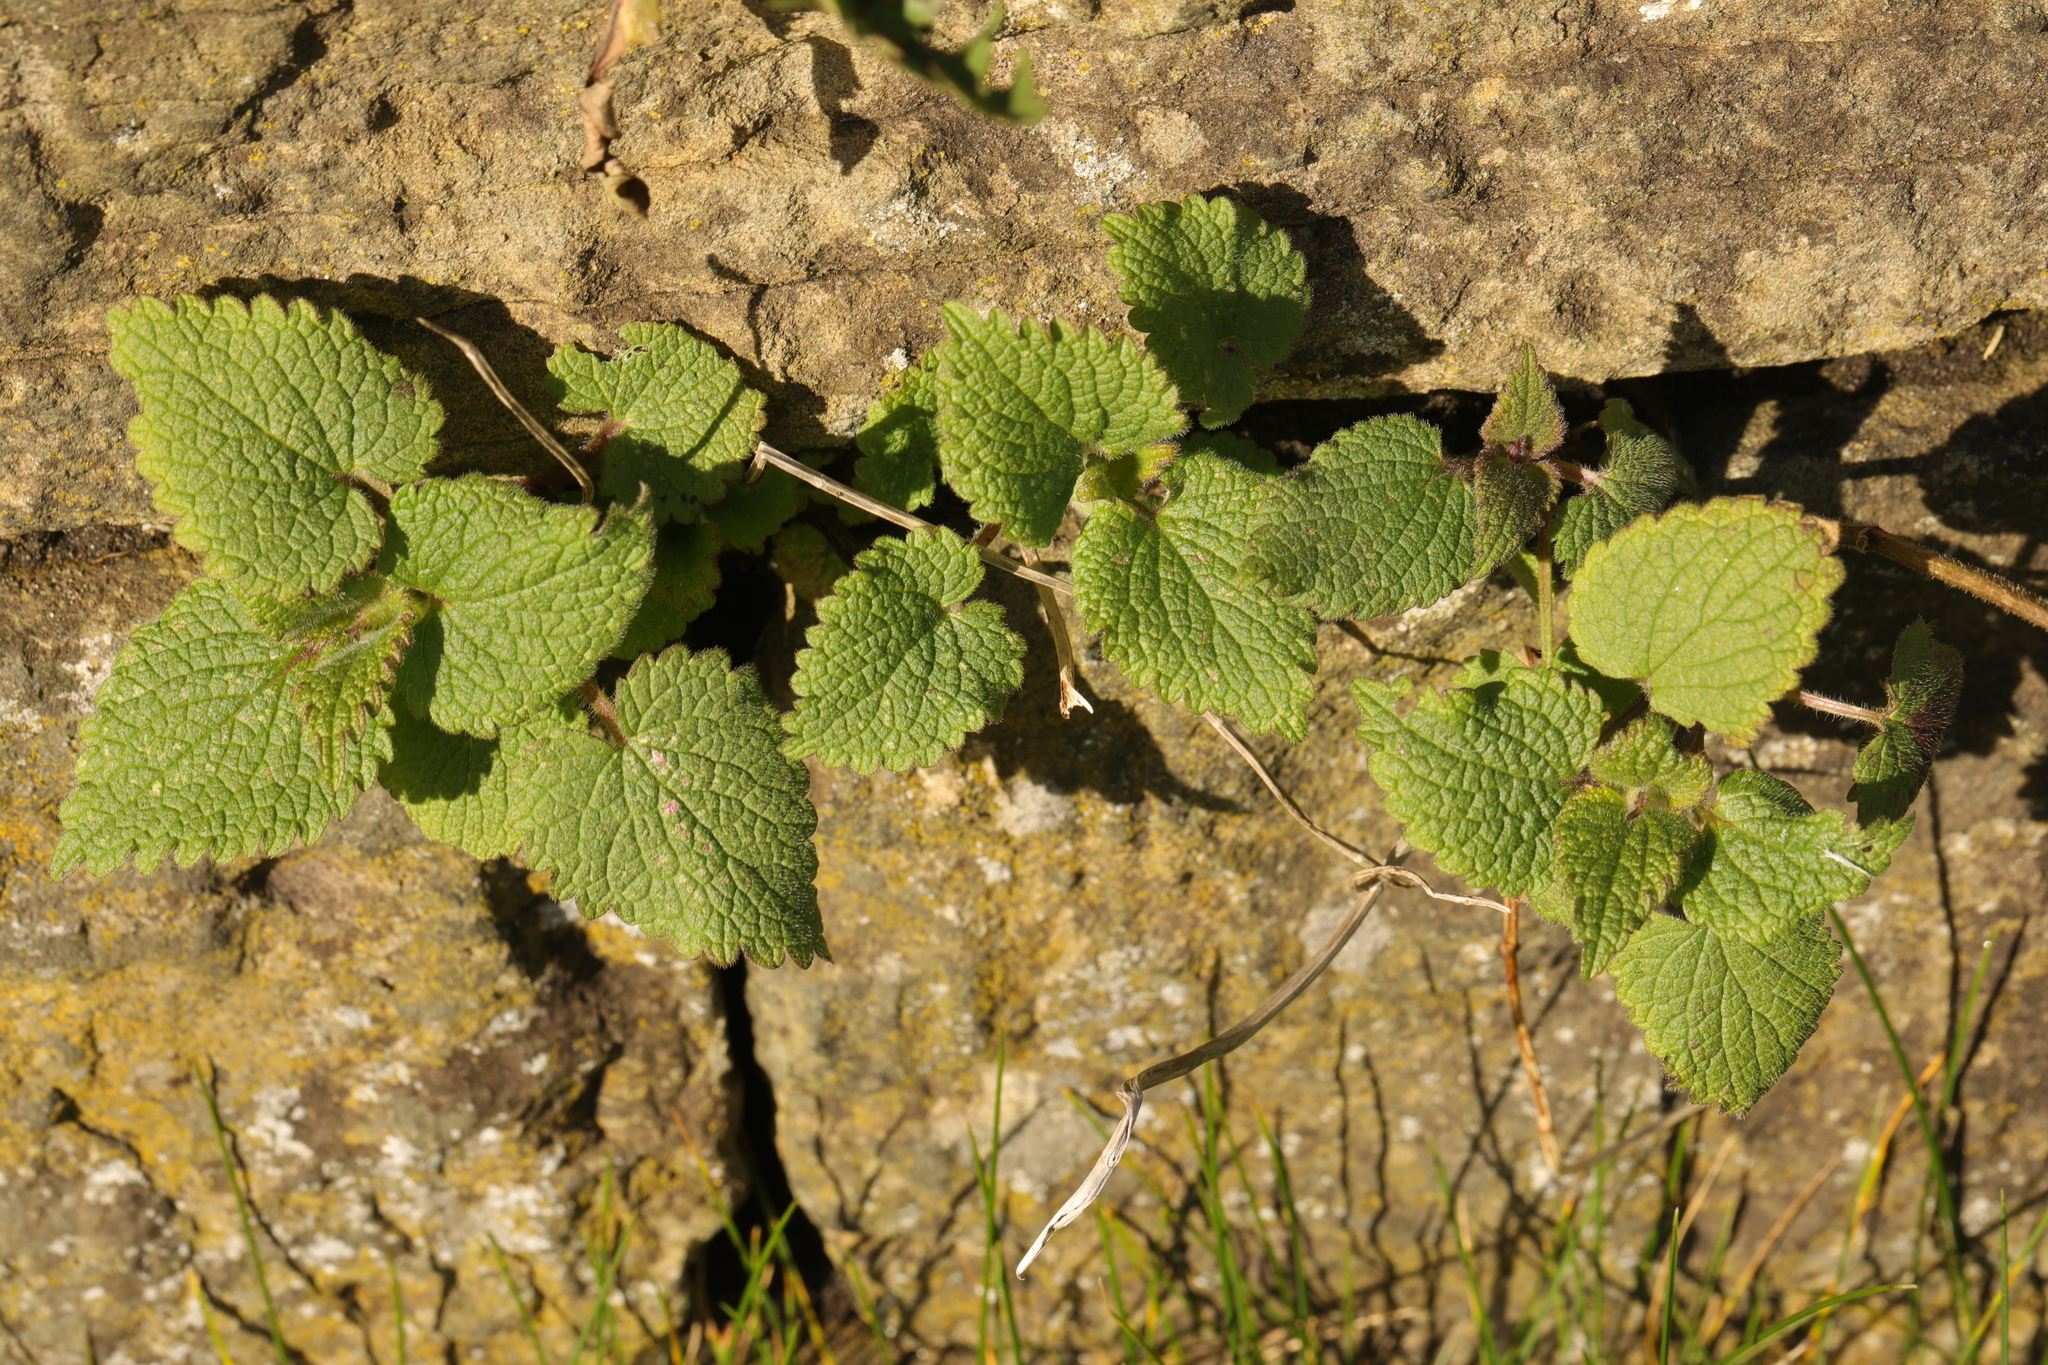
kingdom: Plantae
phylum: Tracheophyta
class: Magnoliopsida
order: Lamiales
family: Lamiaceae
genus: Lamium
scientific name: Lamium album
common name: White dead-nettle
